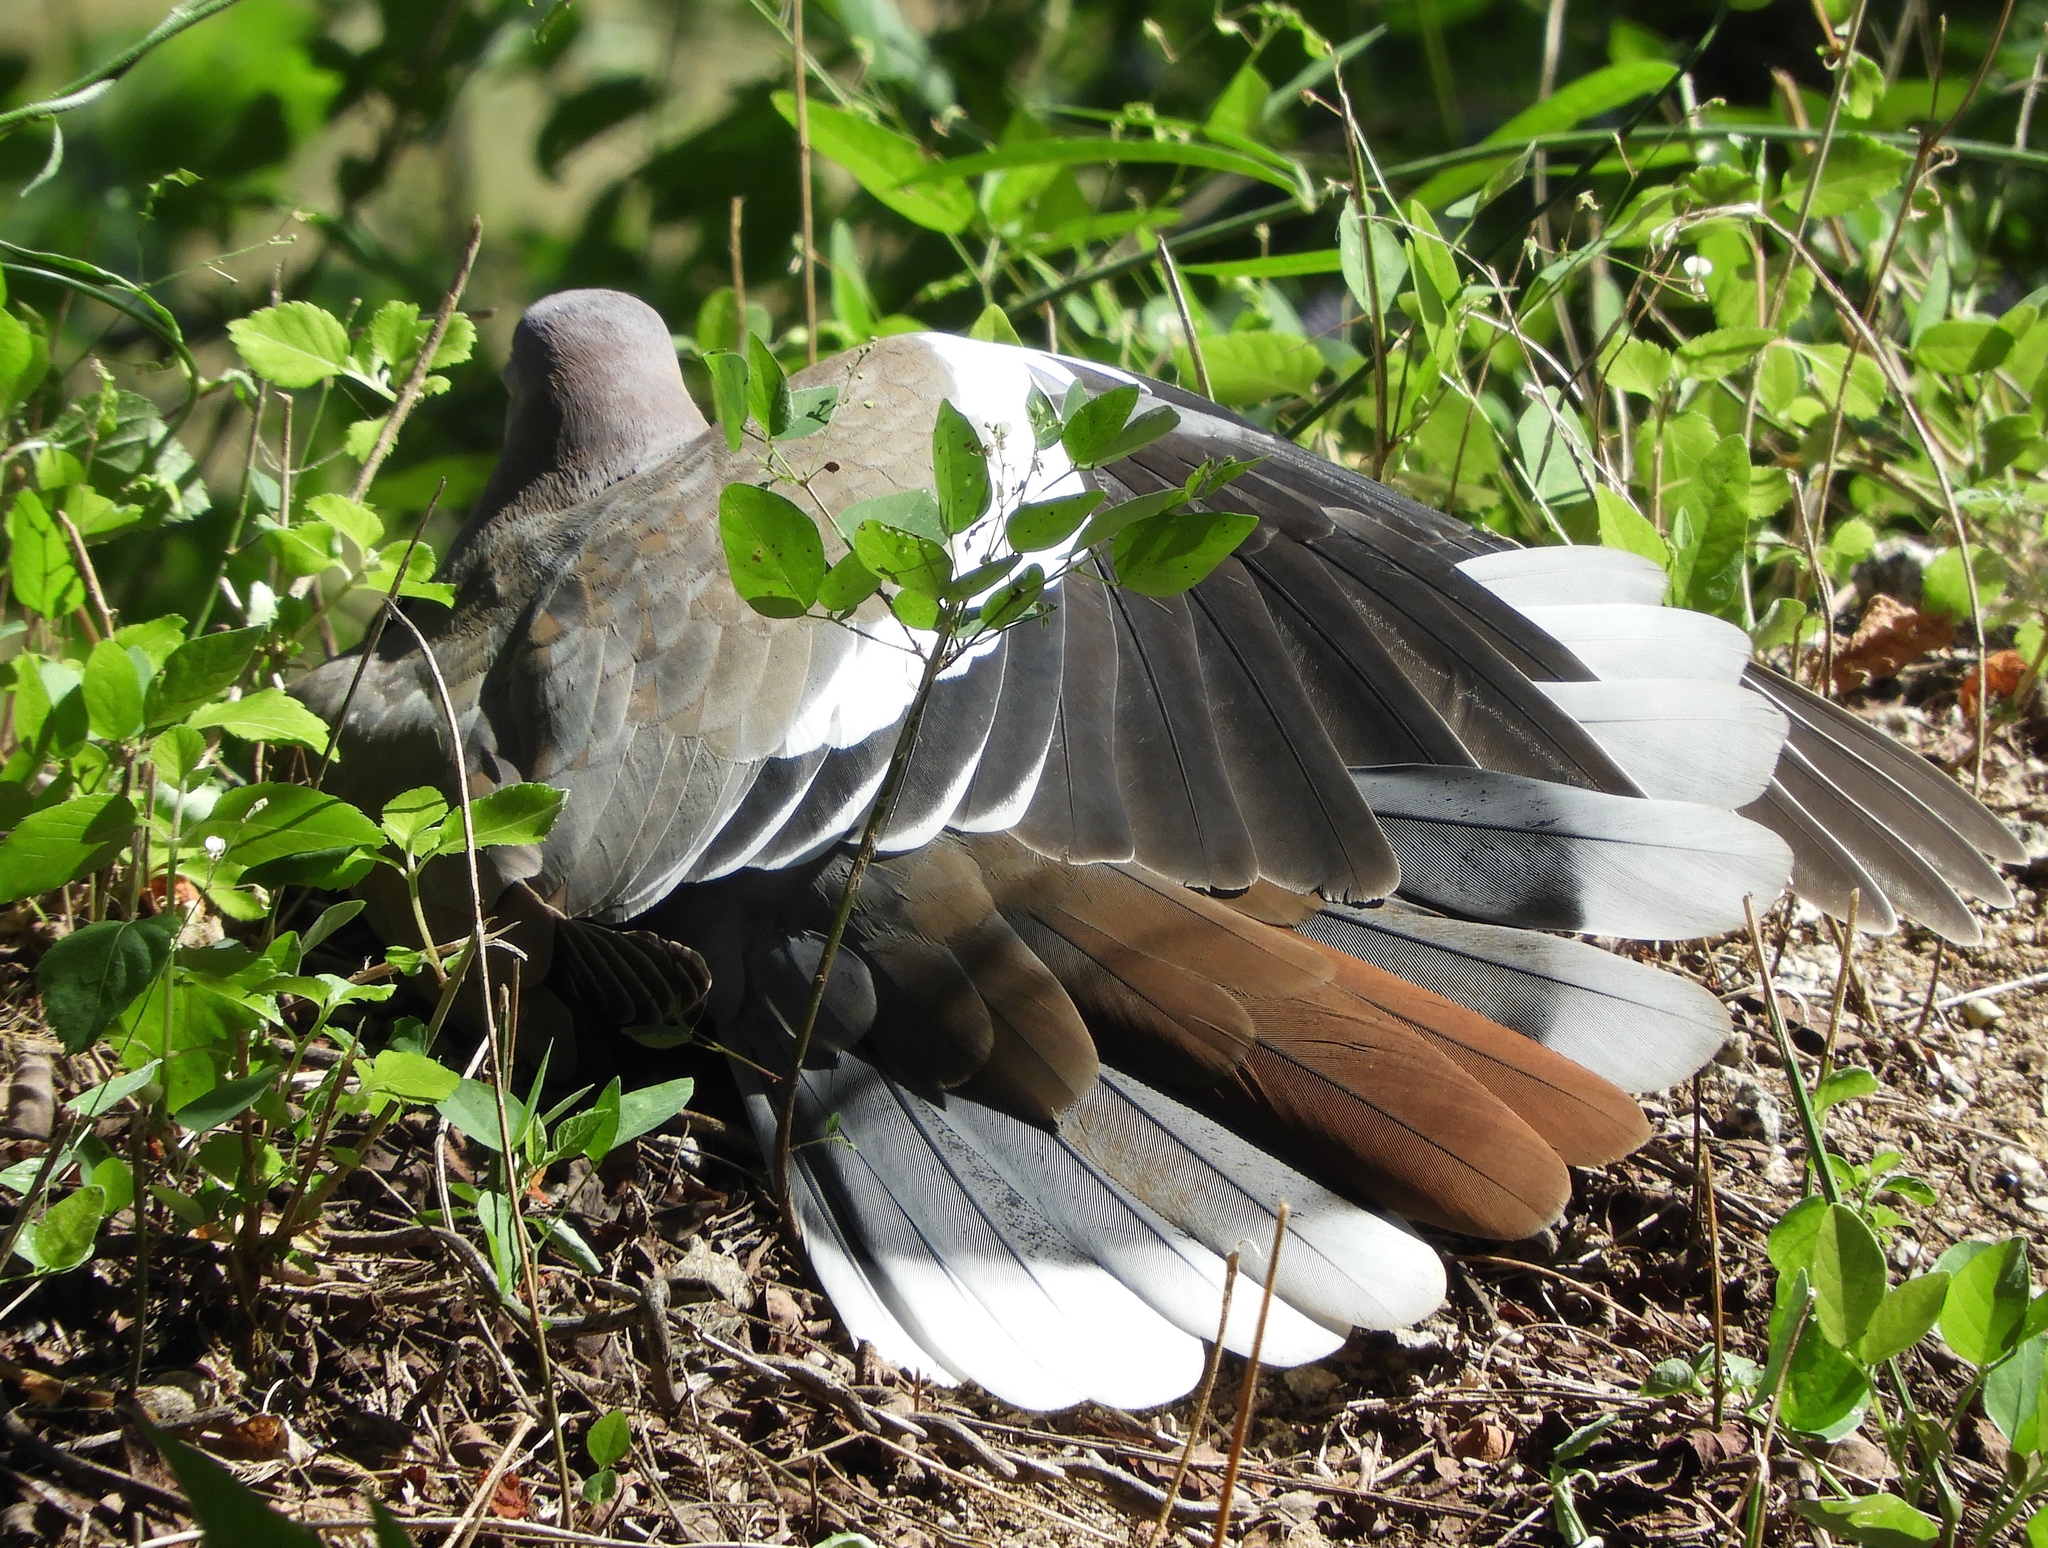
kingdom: Animalia
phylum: Chordata
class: Aves
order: Columbiformes
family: Columbidae
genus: Zenaida
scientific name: Zenaida asiatica
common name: White-winged dove
